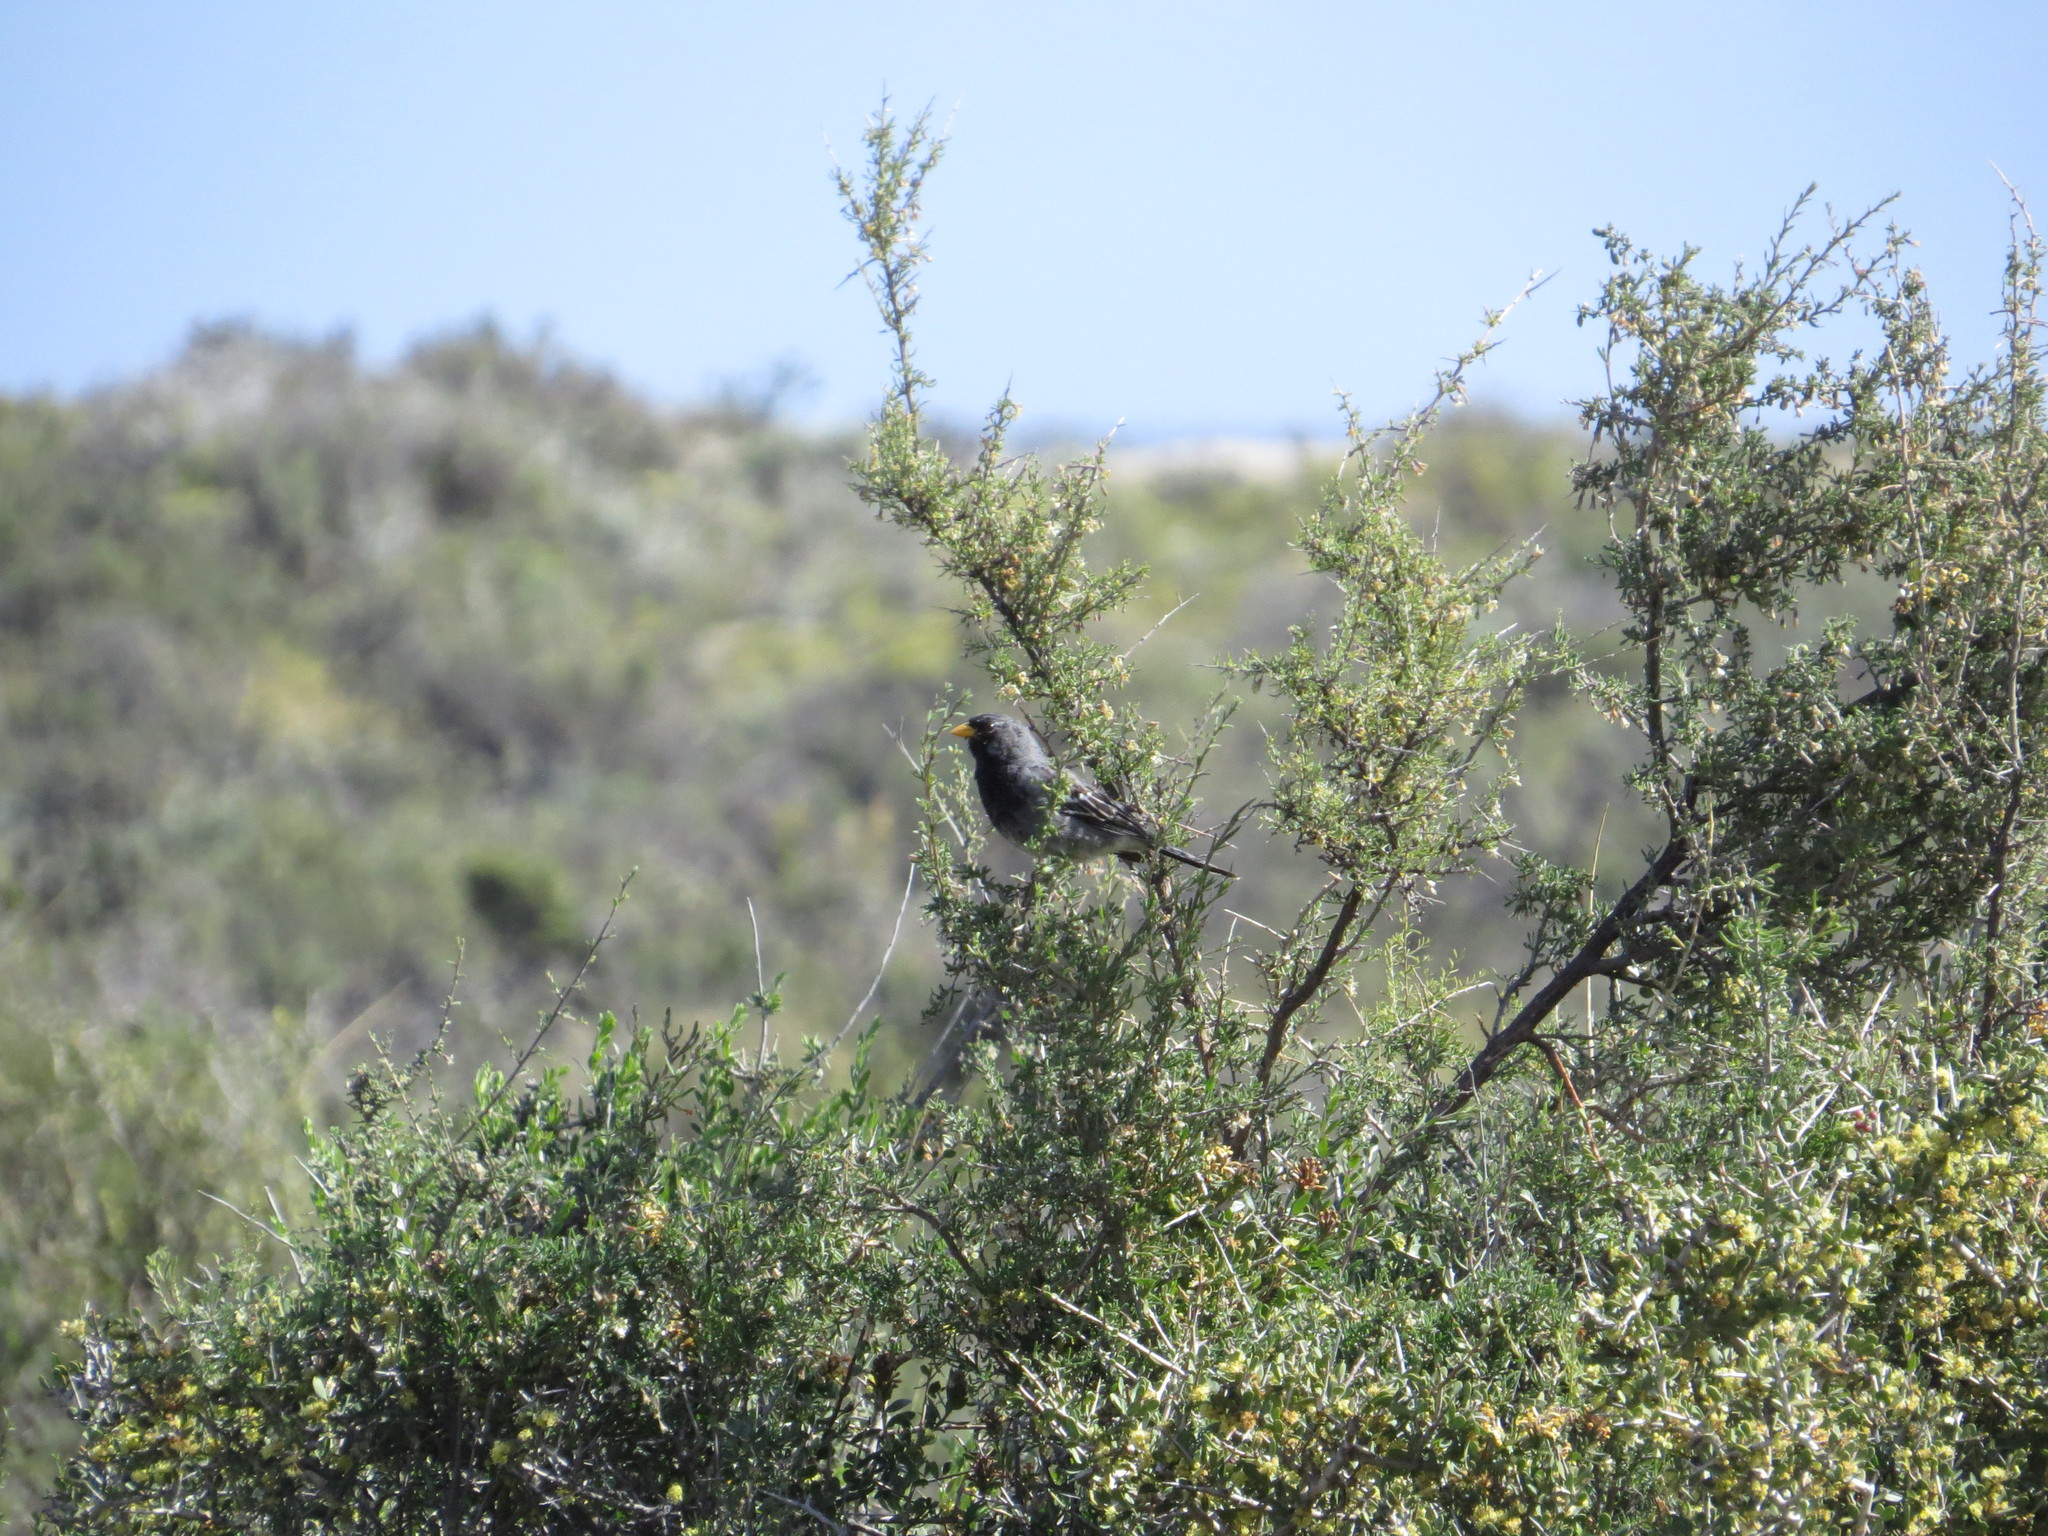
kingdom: Animalia
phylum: Chordata
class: Aves
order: Passeriformes
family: Thraupidae
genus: Rhopospina
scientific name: Rhopospina fruticeti
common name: Mourning sierra finch
